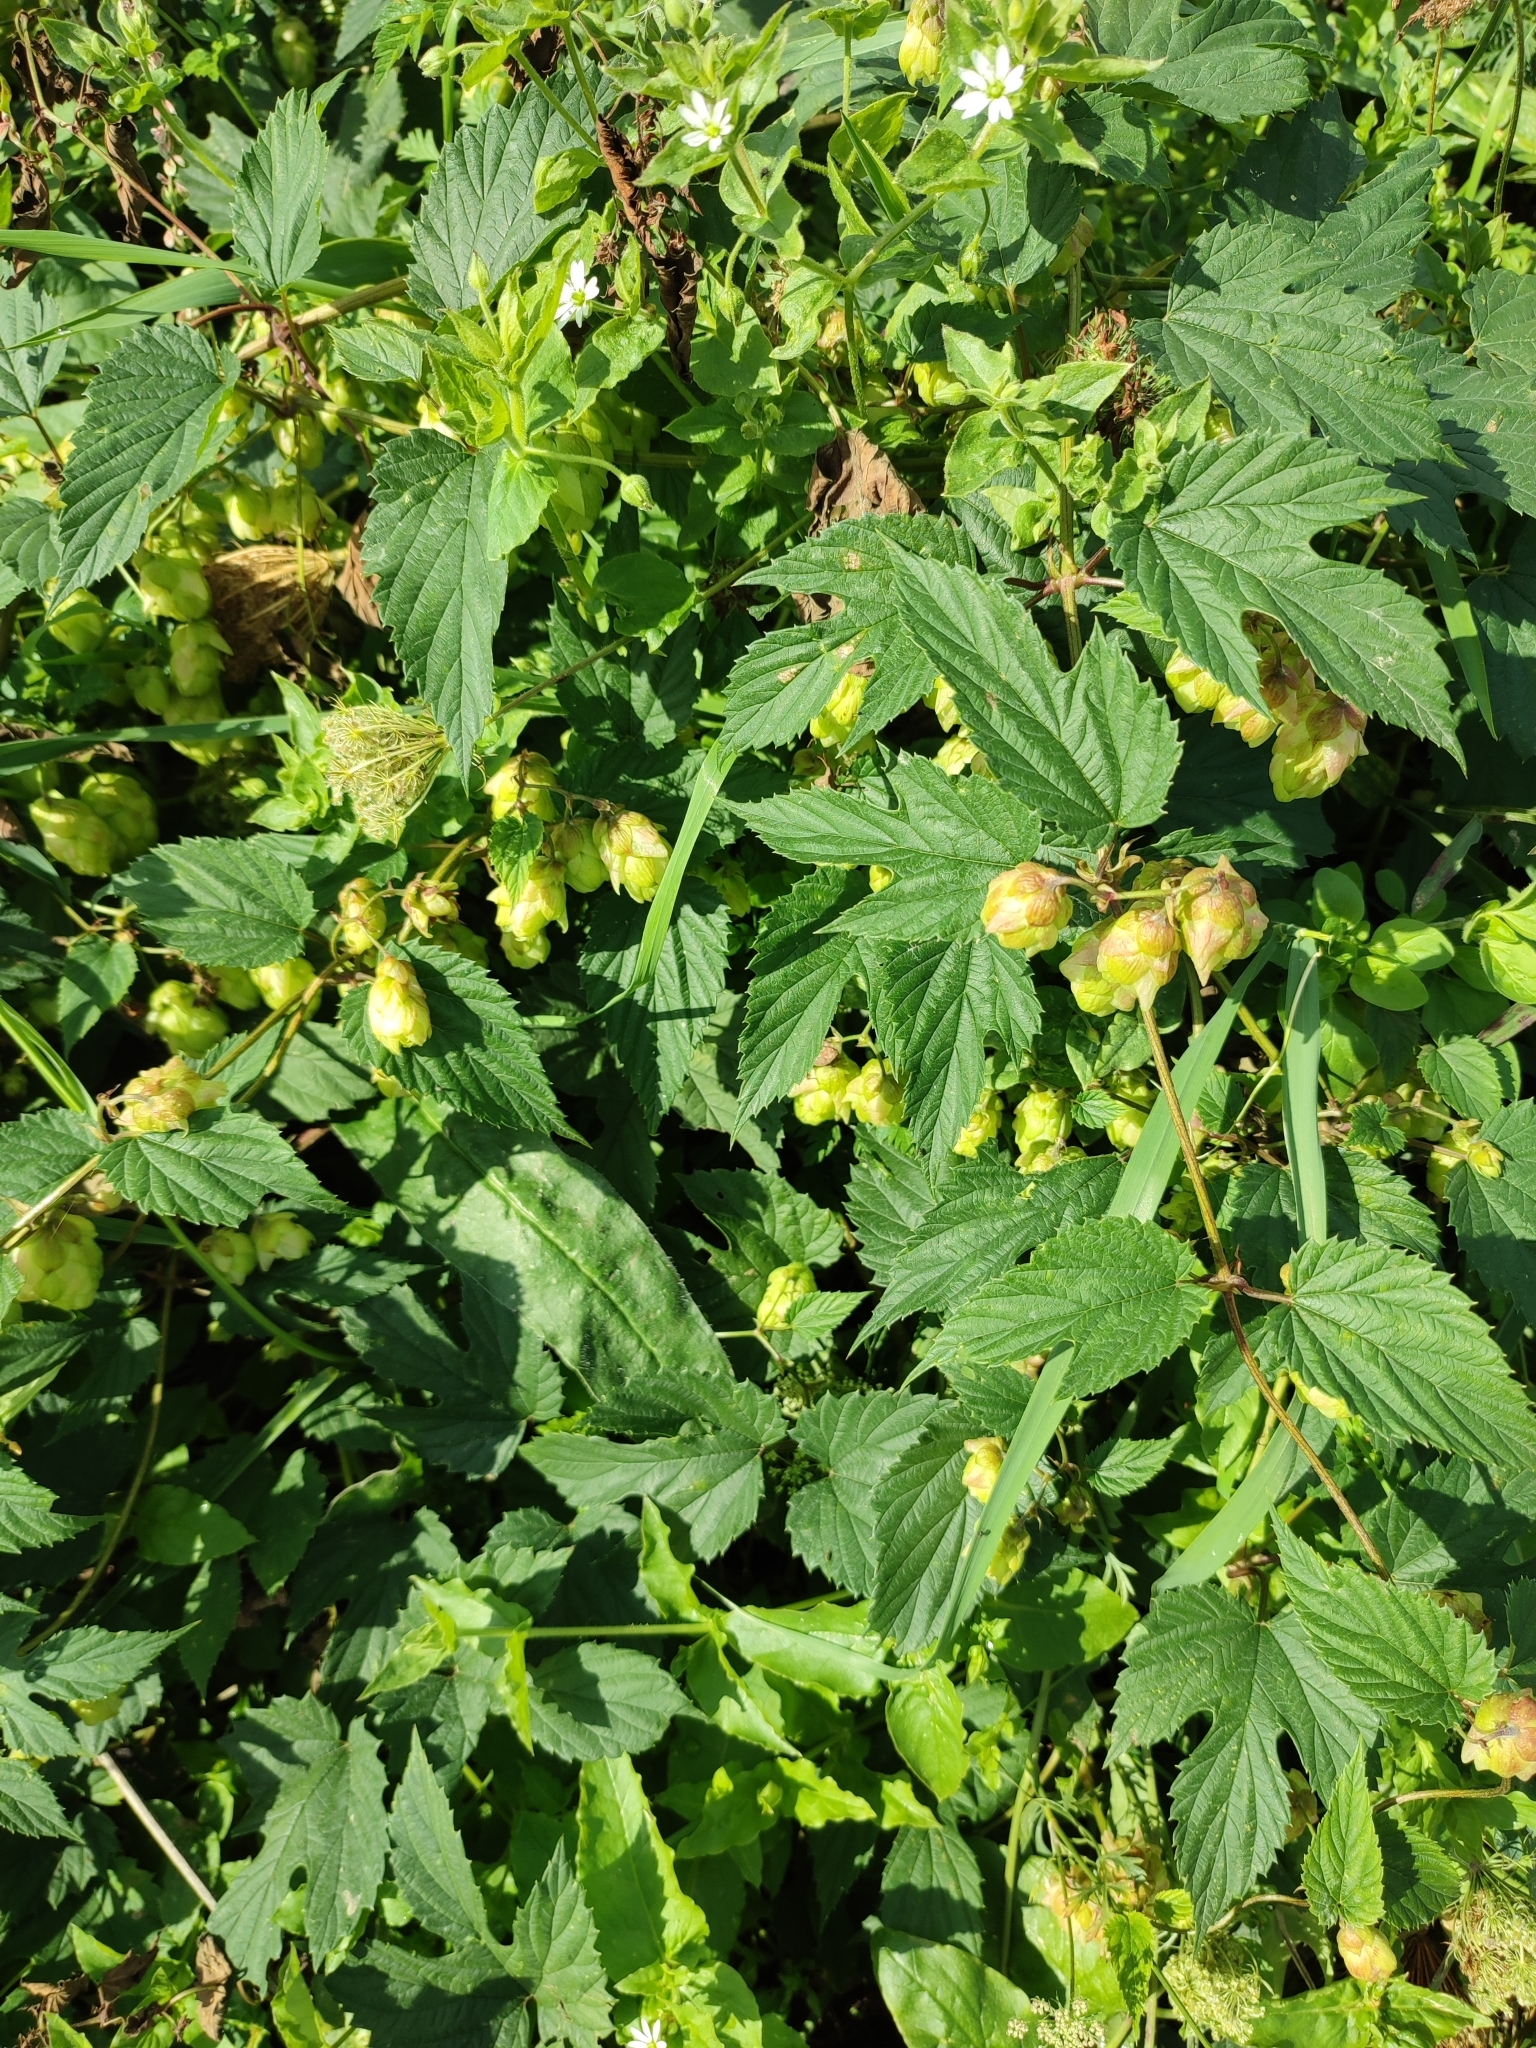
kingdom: Plantae
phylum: Tracheophyta
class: Magnoliopsida
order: Rosales
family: Cannabaceae
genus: Humulus
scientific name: Humulus lupulus
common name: Hop
